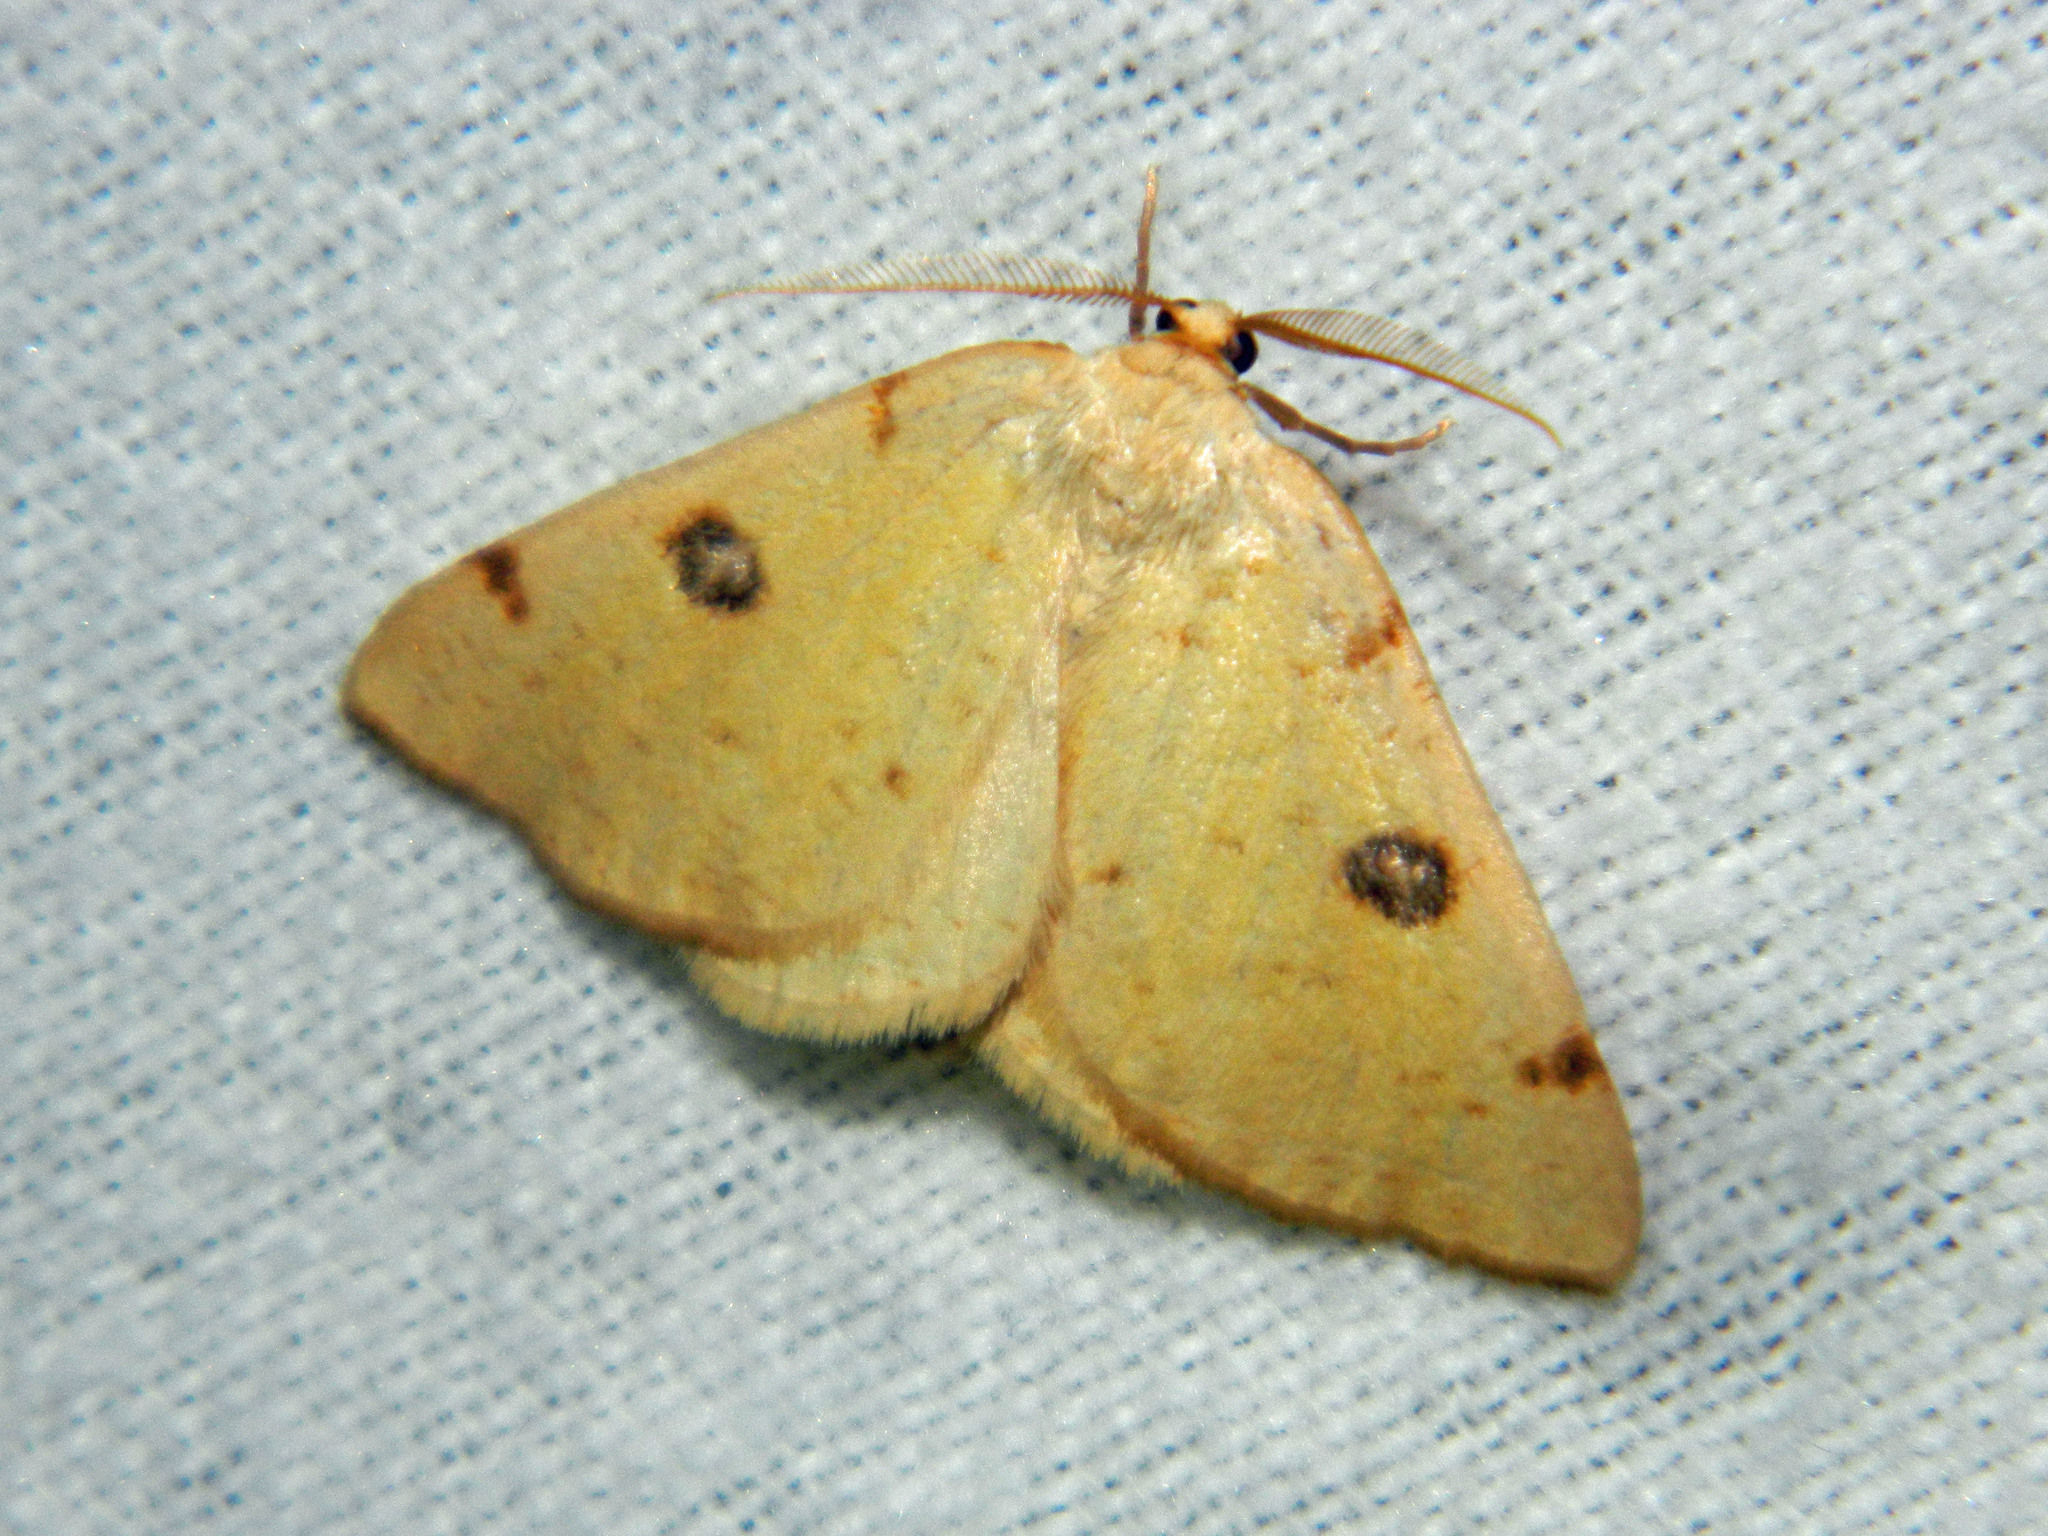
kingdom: Animalia
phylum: Arthropoda
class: Insecta
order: Lepidoptera
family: Geometridae
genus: Hesperumia
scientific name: Hesperumia sulphuraria
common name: Sulphur moth
